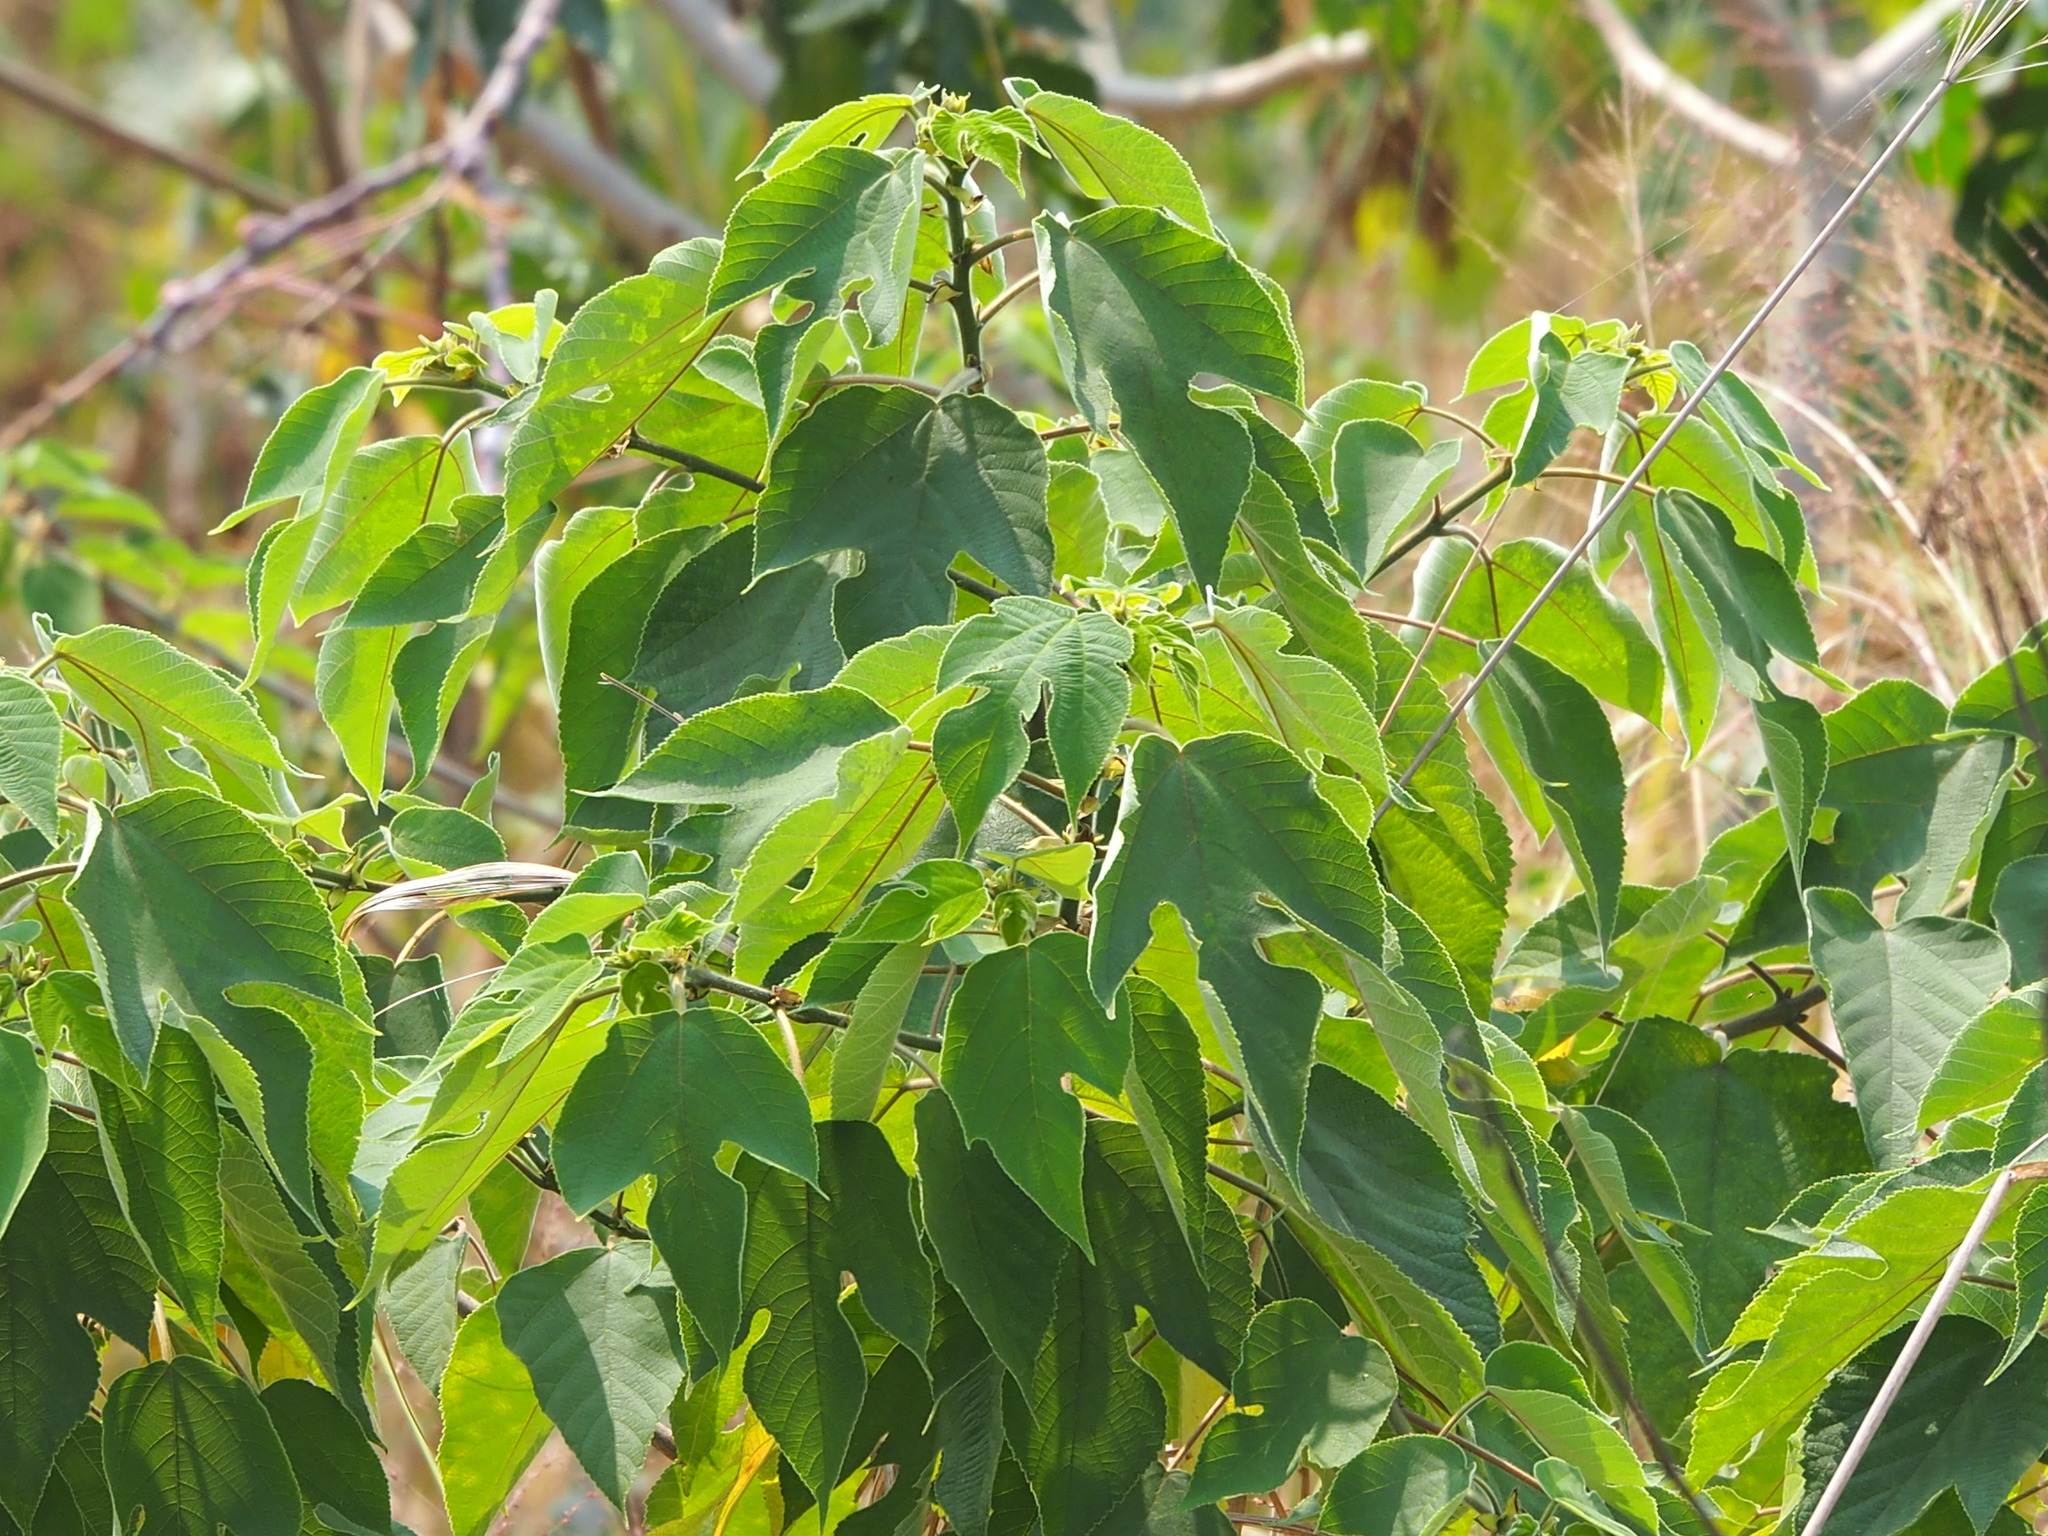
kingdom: Plantae
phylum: Tracheophyta
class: Magnoliopsida
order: Rosales
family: Moraceae
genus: Broussonetia
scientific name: Broussonetia papyrifera
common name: Paper mulberry
